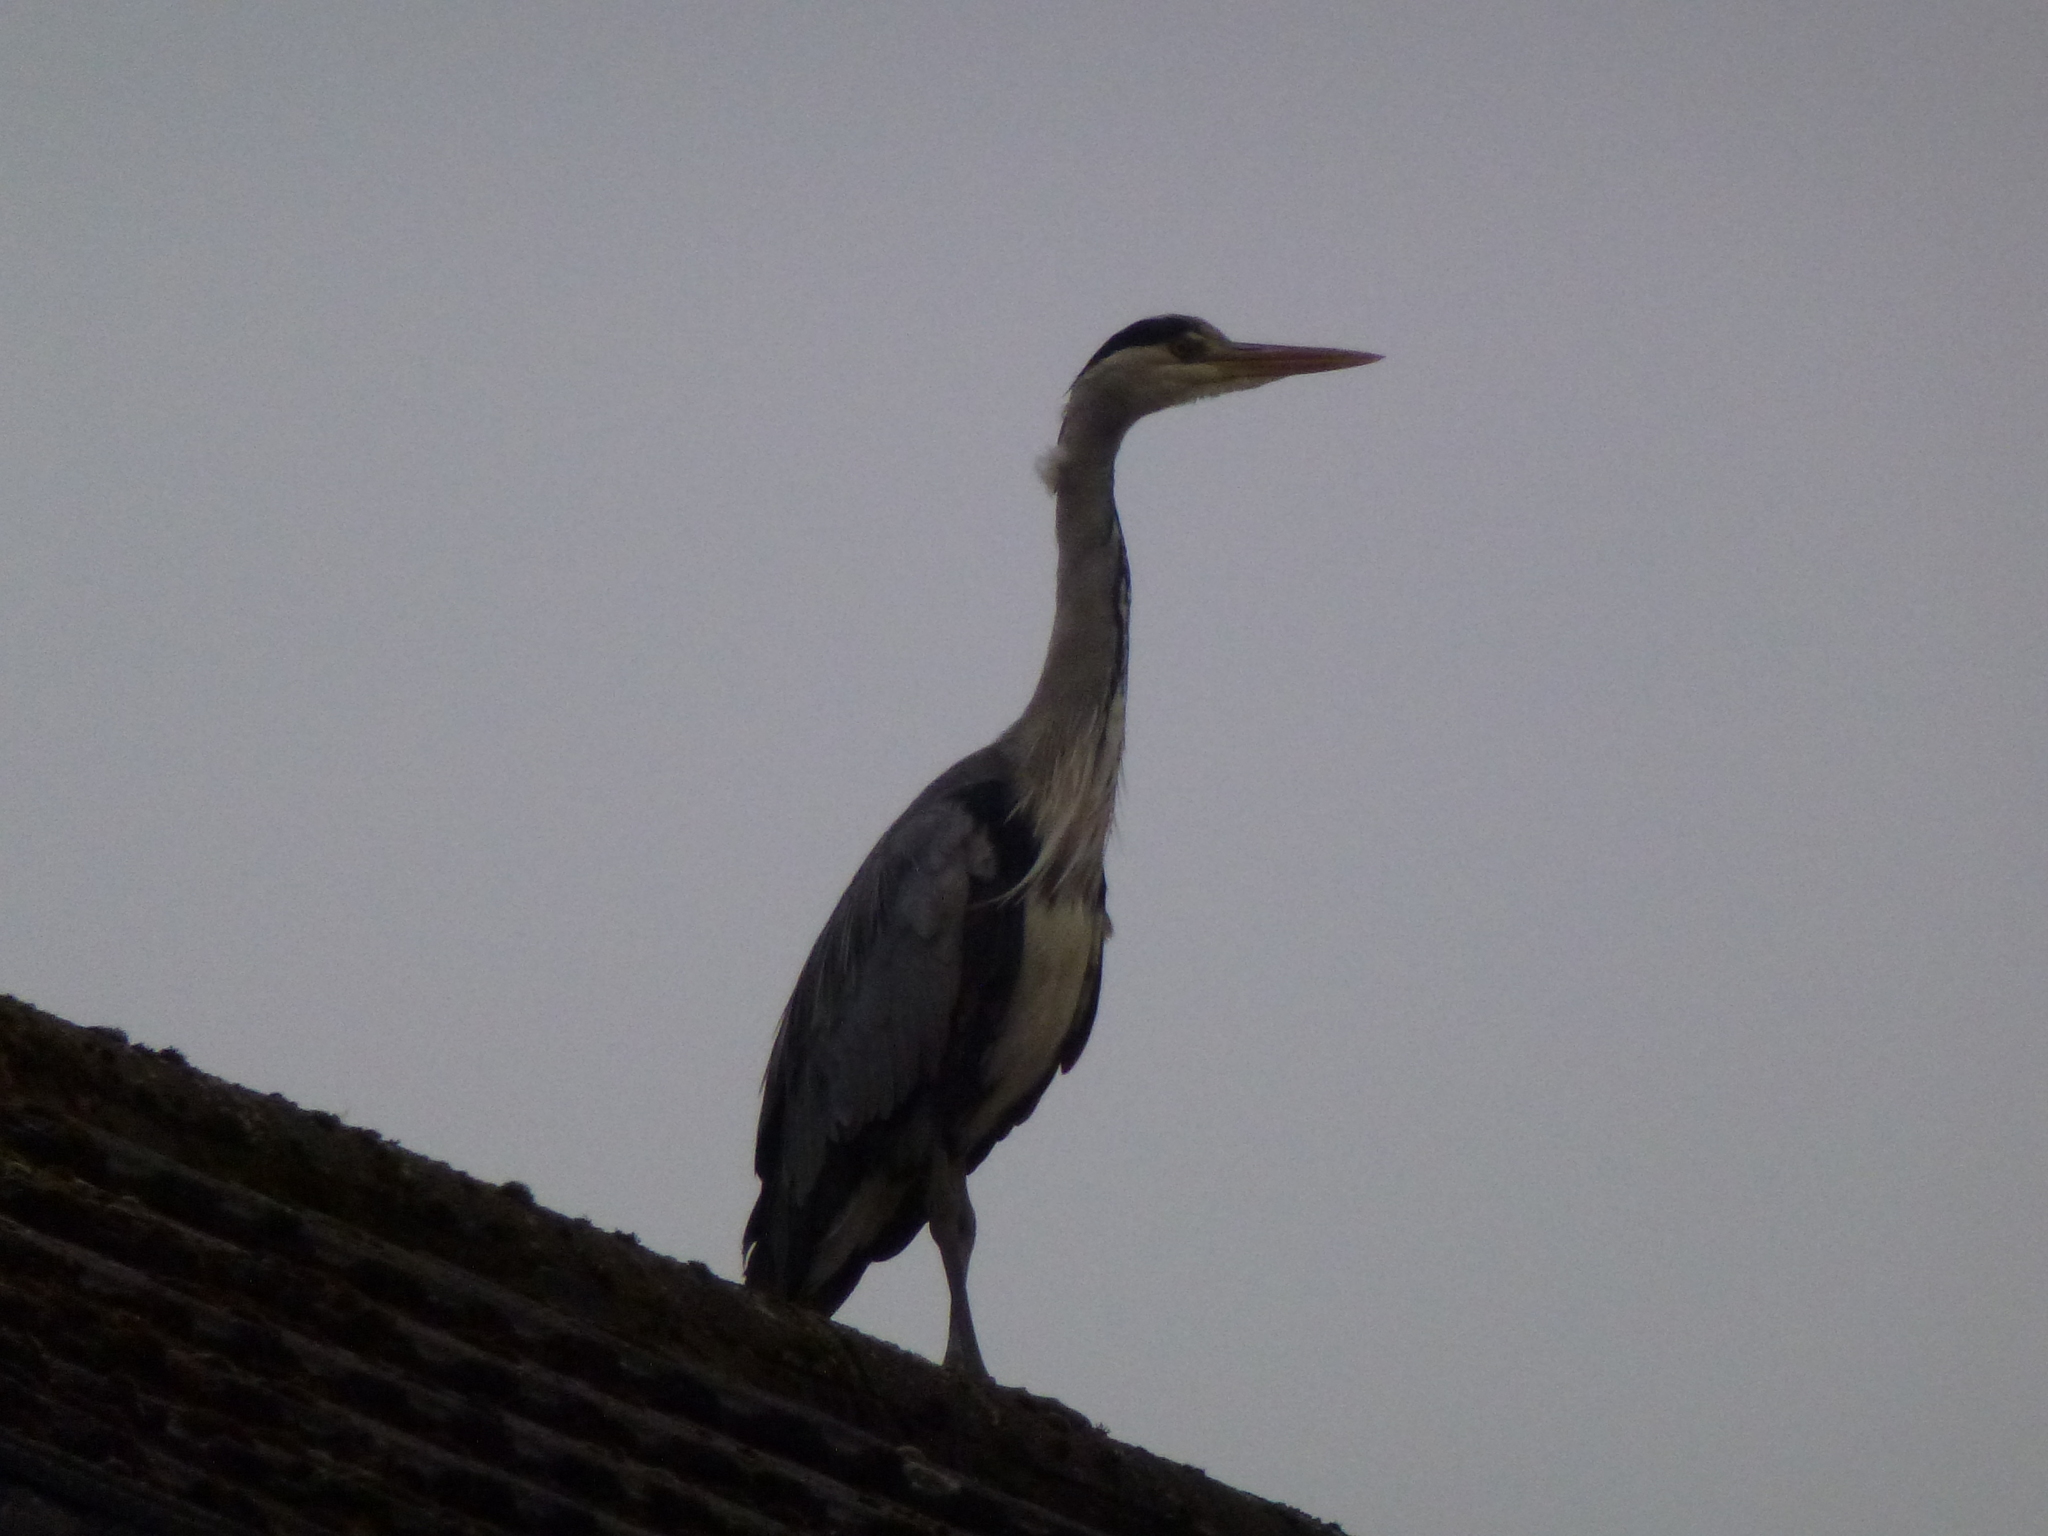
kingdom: Animalia
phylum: Chordata
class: Aves
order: Pelecaniformes
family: Ardeidae
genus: Ardea
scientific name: Ardea cinerea
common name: Grey heron
